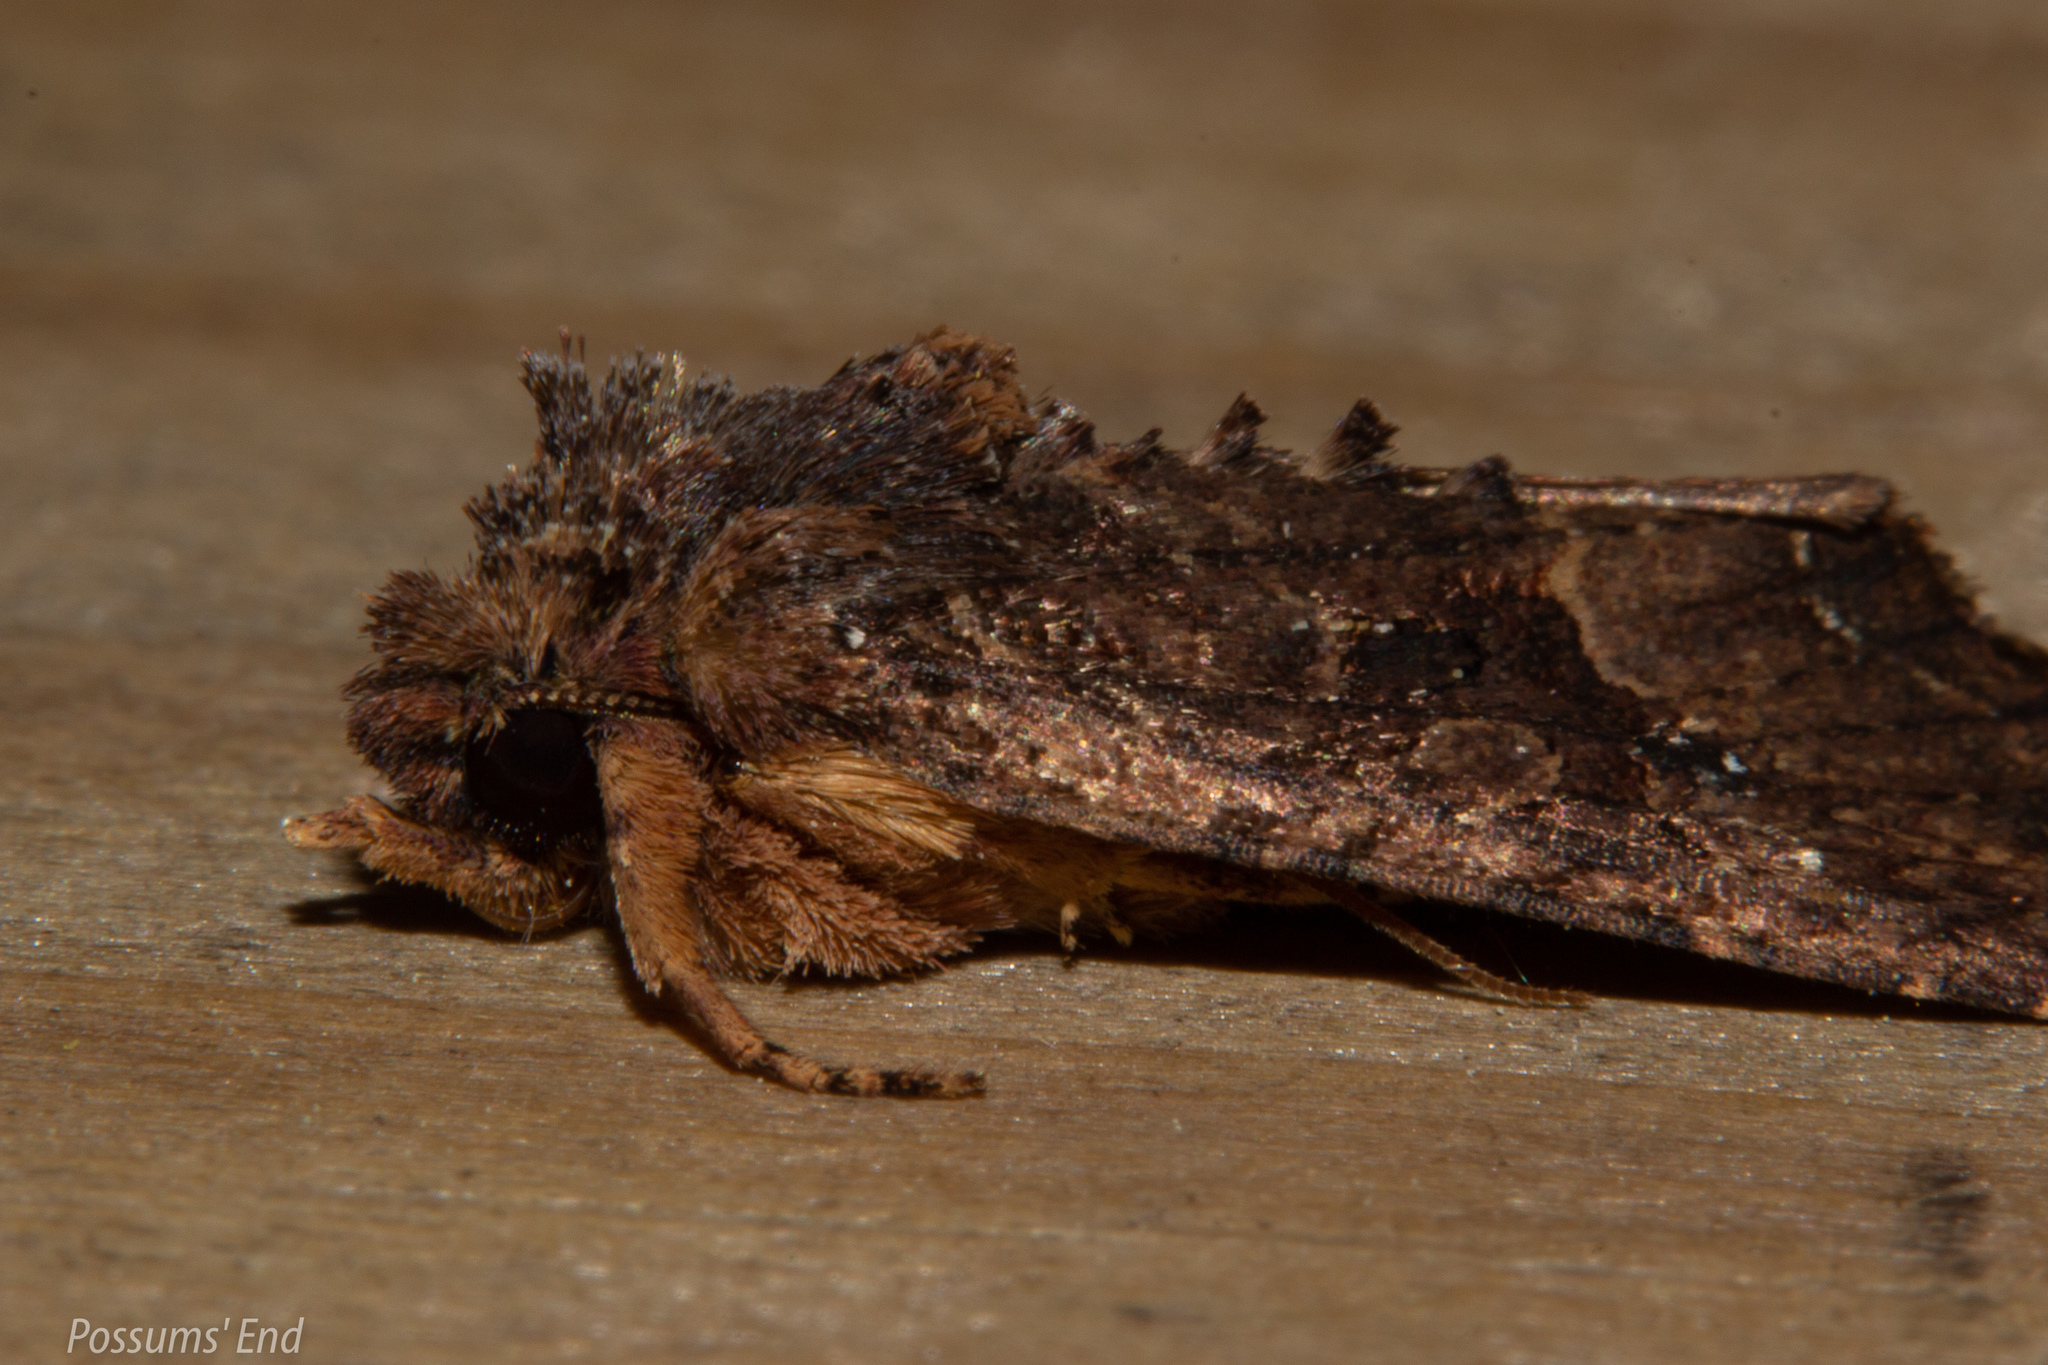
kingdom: Animalia
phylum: Arthropoda
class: Insecta
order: Lepidoptera
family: Noctuidae
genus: Meterana
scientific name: Meterana ochthistis
